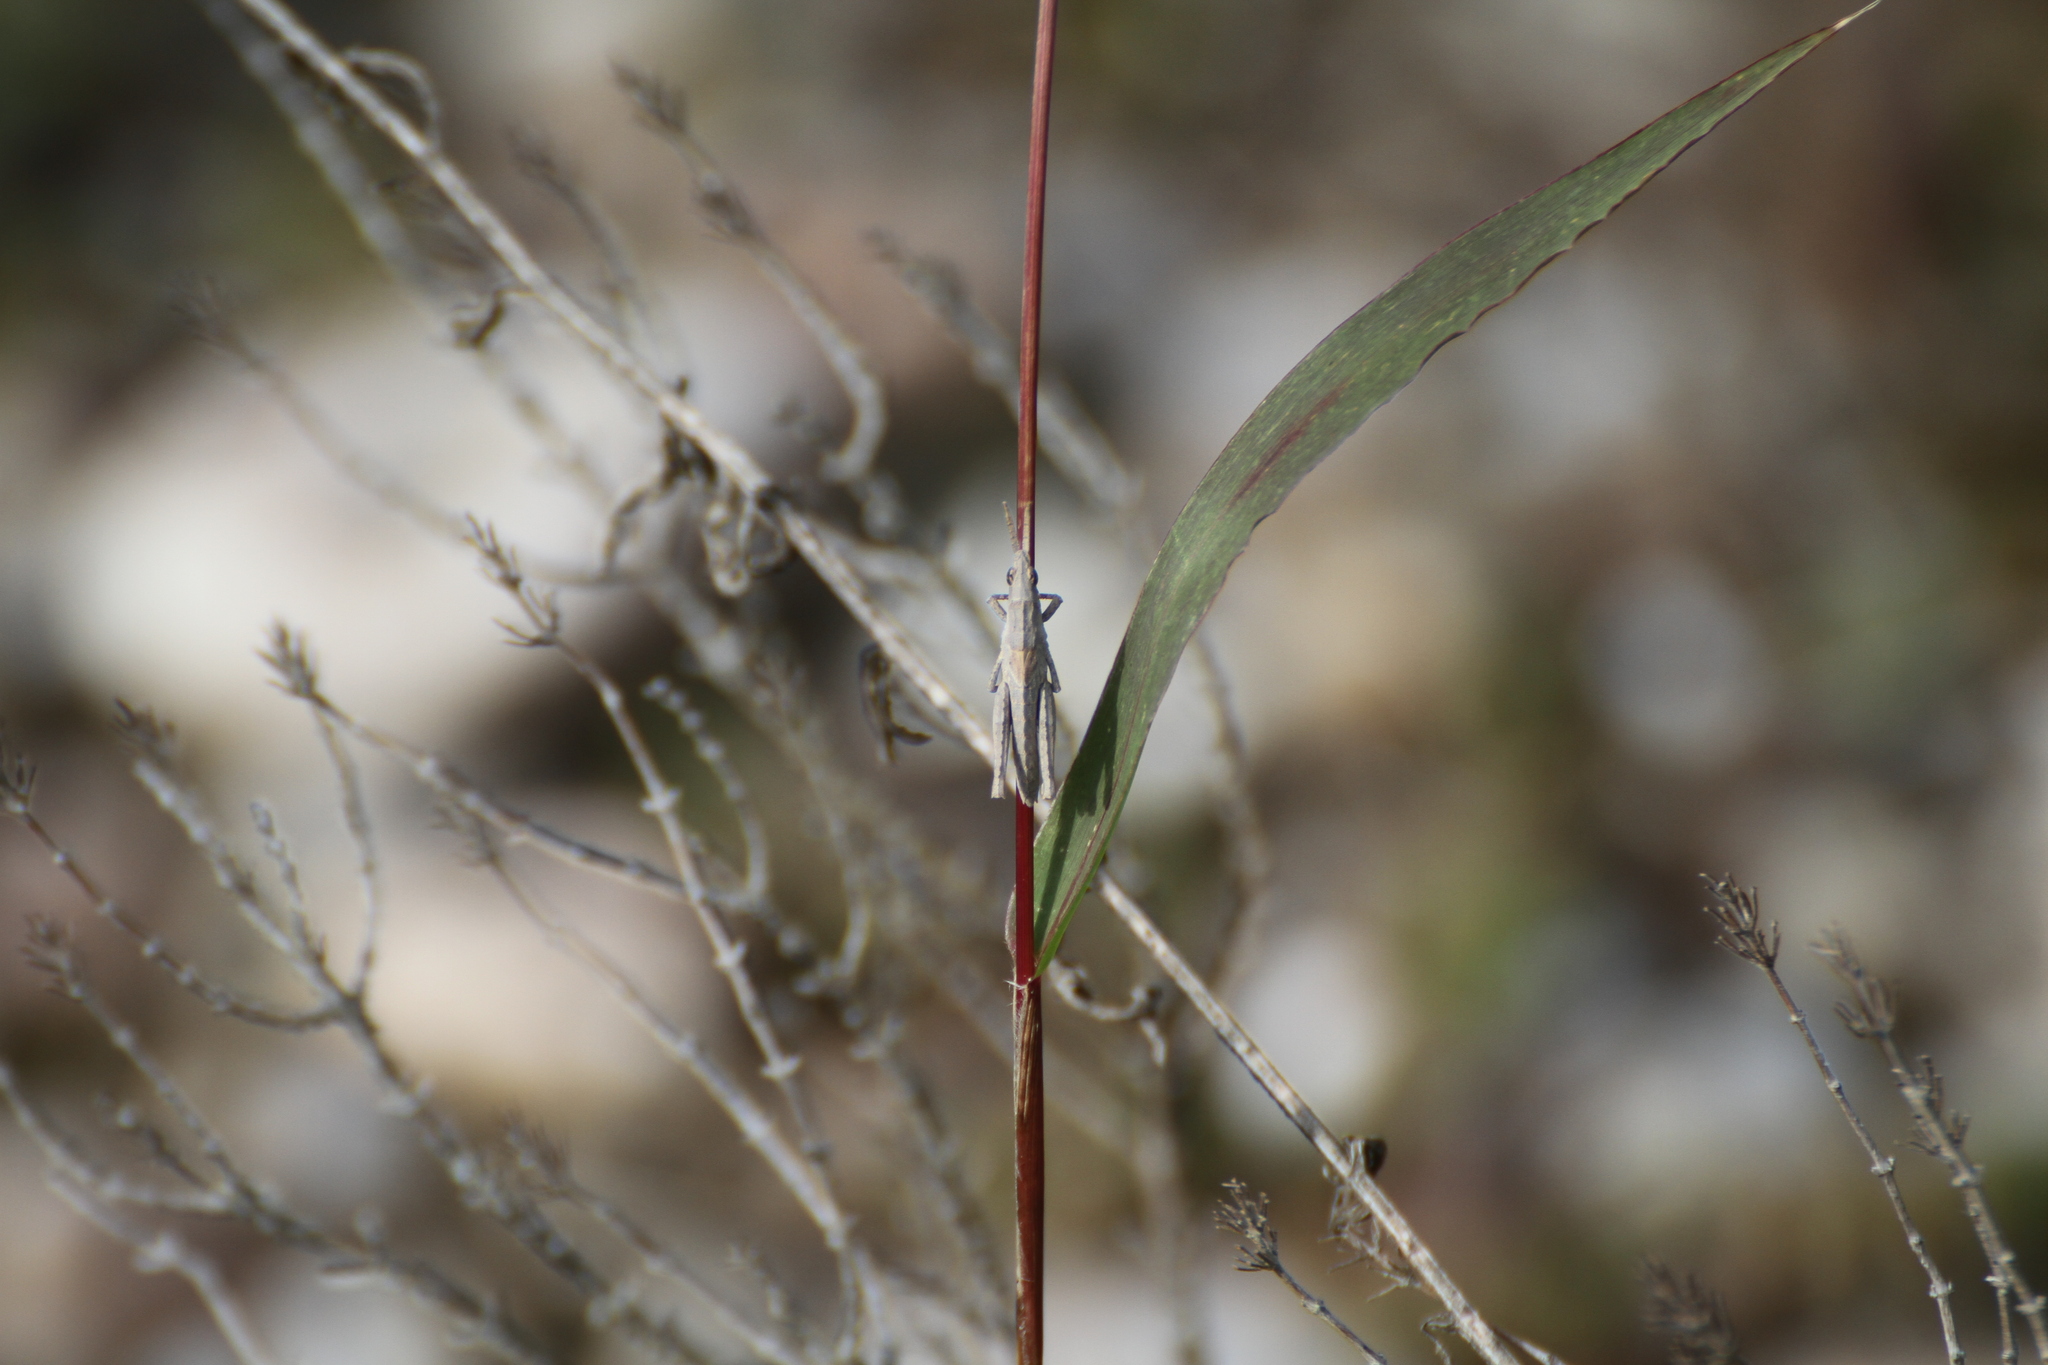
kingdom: Animalia
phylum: Arthropoda
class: Insecta
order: Orthoptera
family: Pyrgomorphidae
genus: Pyrgomorpha
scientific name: Pyrgomorpha conica
